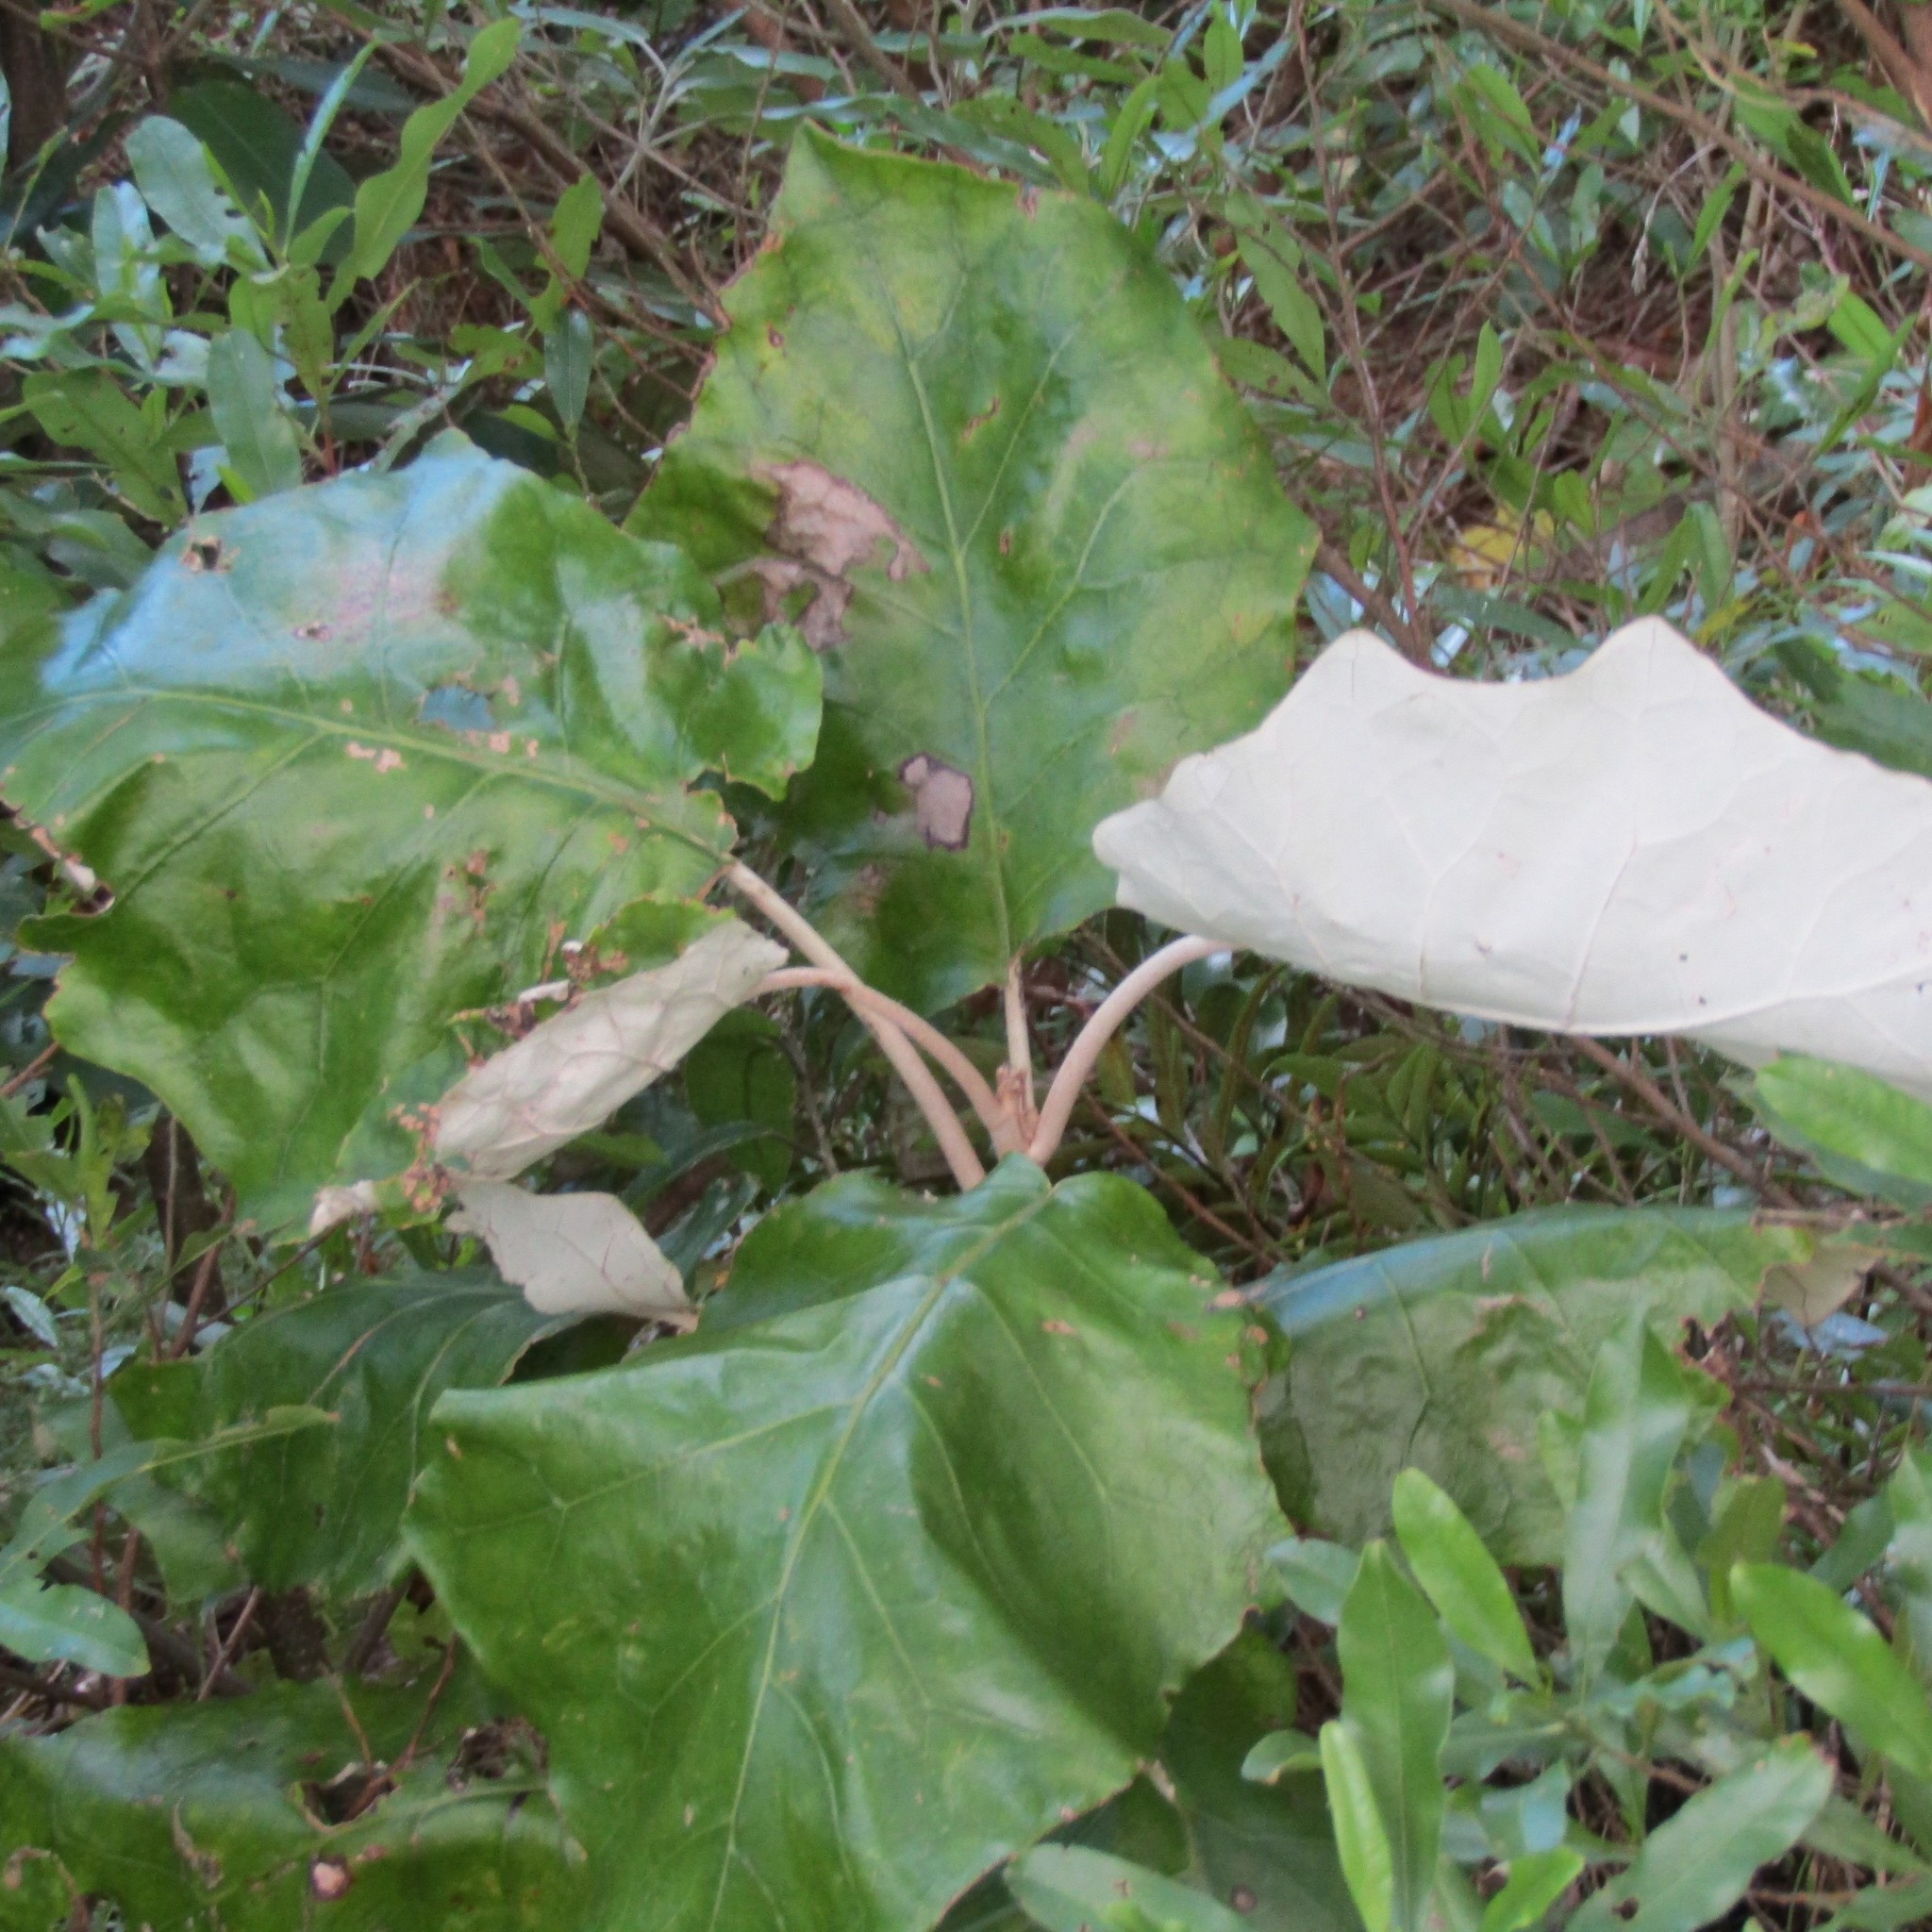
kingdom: Plantae
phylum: Tracheophyta
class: Magnoliopsida
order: Asterales
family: Asteraceae
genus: Brachyglottis
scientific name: Brachyglottis repanda
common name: Hedge ragwort
